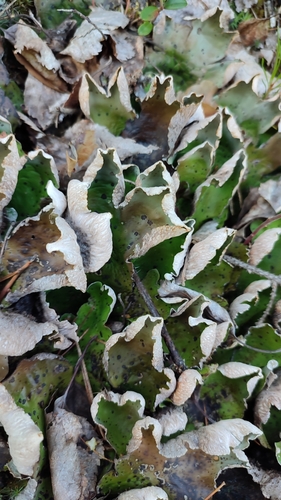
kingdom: Fungi
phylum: Ascomycota
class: Lecanoromycetes
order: Peltigerales
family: Peltigeraceae
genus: Peltigera
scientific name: Peltigera aphthosa
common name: Common freckle pelt lichen
